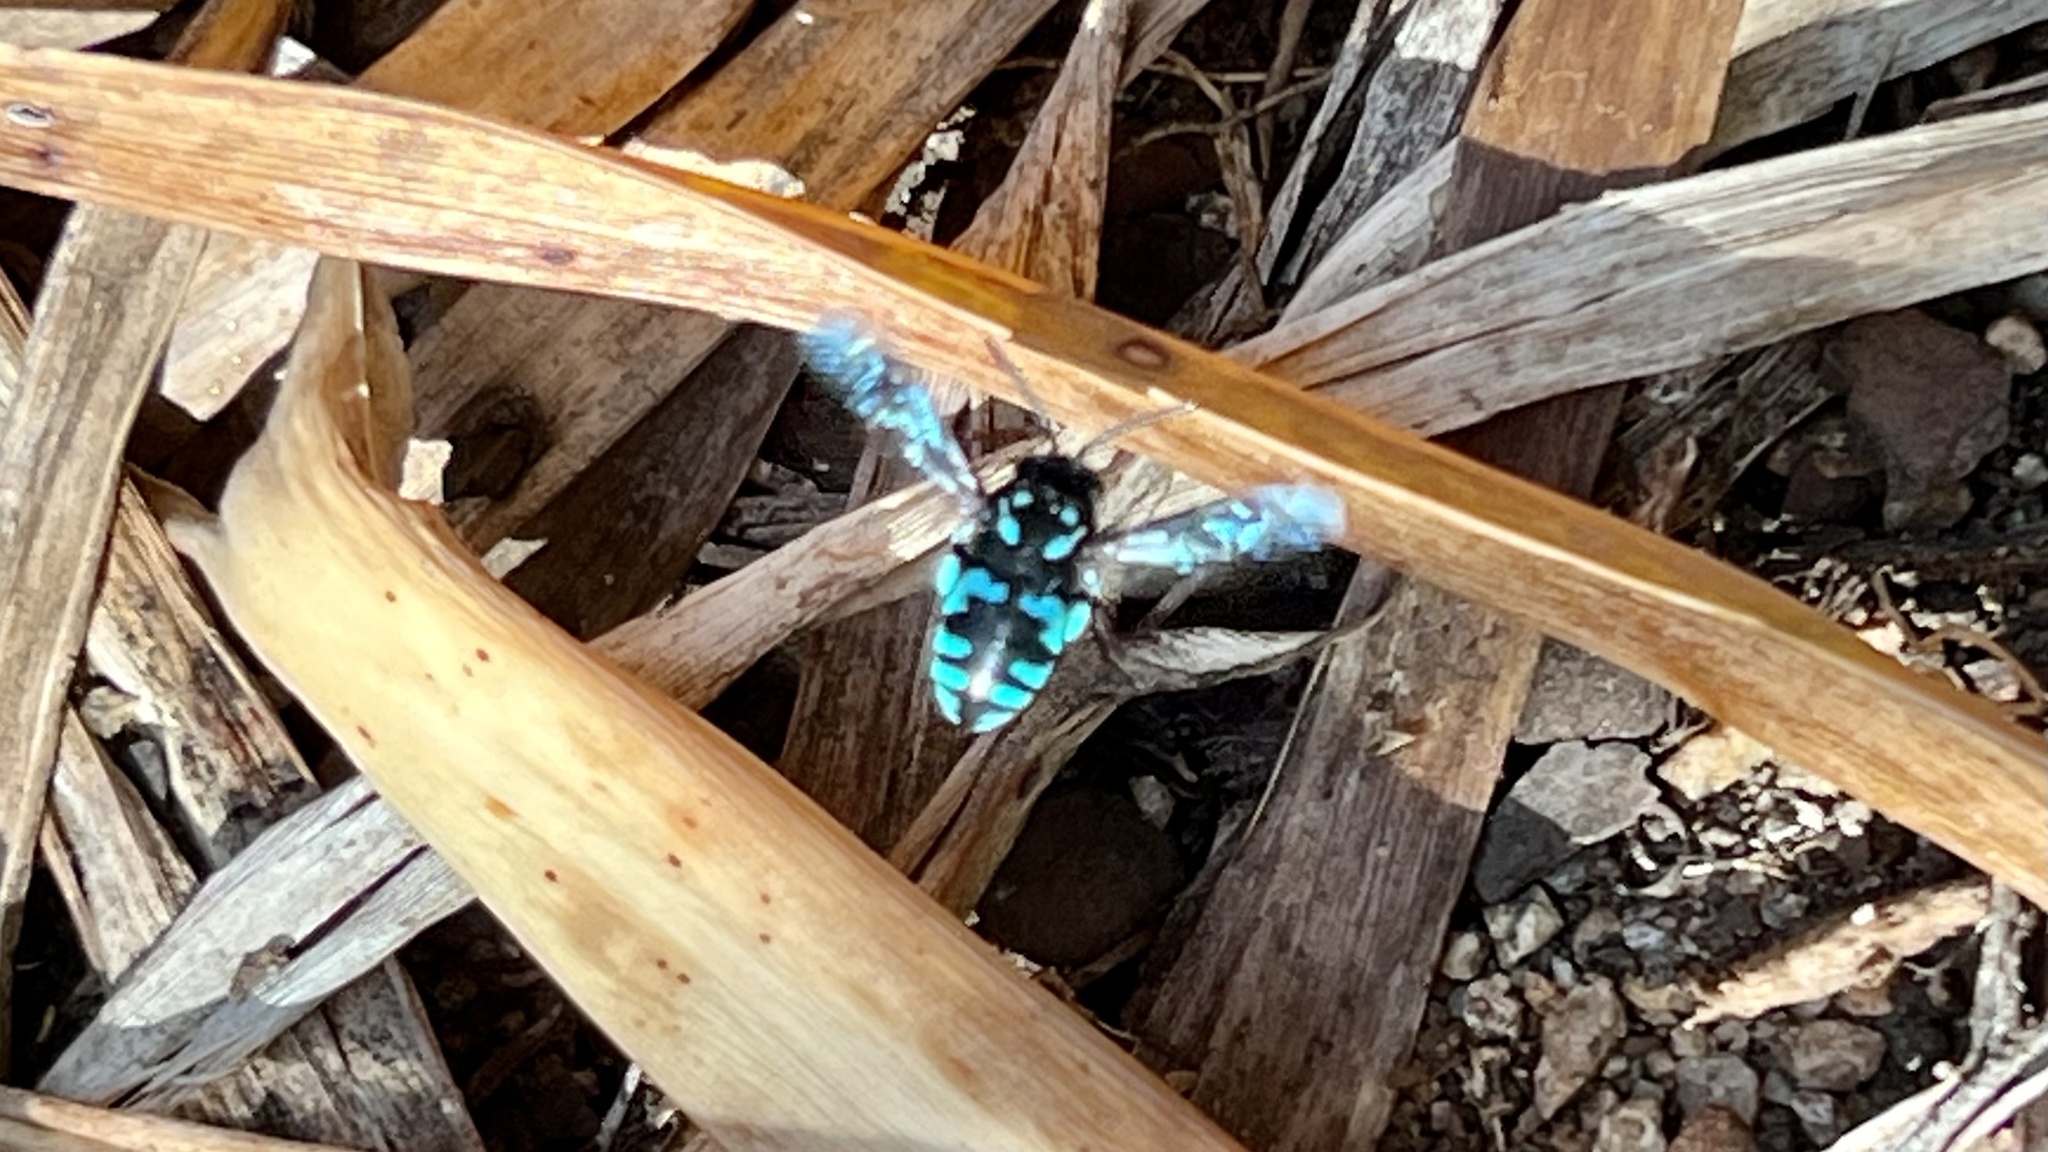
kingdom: Animalia
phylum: Arthropoda
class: Insecta
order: Hymenoptera
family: Apidae
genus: Thyreus
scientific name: Thyreus nitidulus
